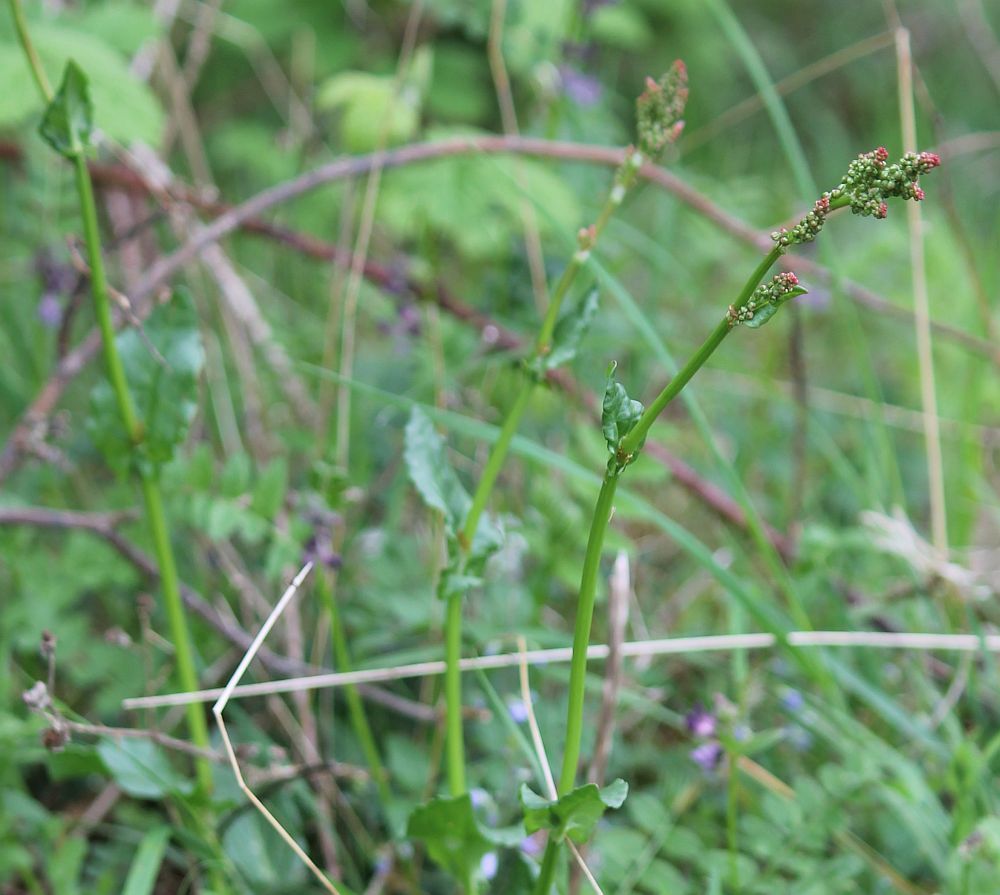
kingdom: Plantae
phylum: Tracheophyta
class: Magnoliopsida
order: Caryophyllales
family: Polygonaceae
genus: Rumex
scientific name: Rumex acetosa
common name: Garden sorrel
